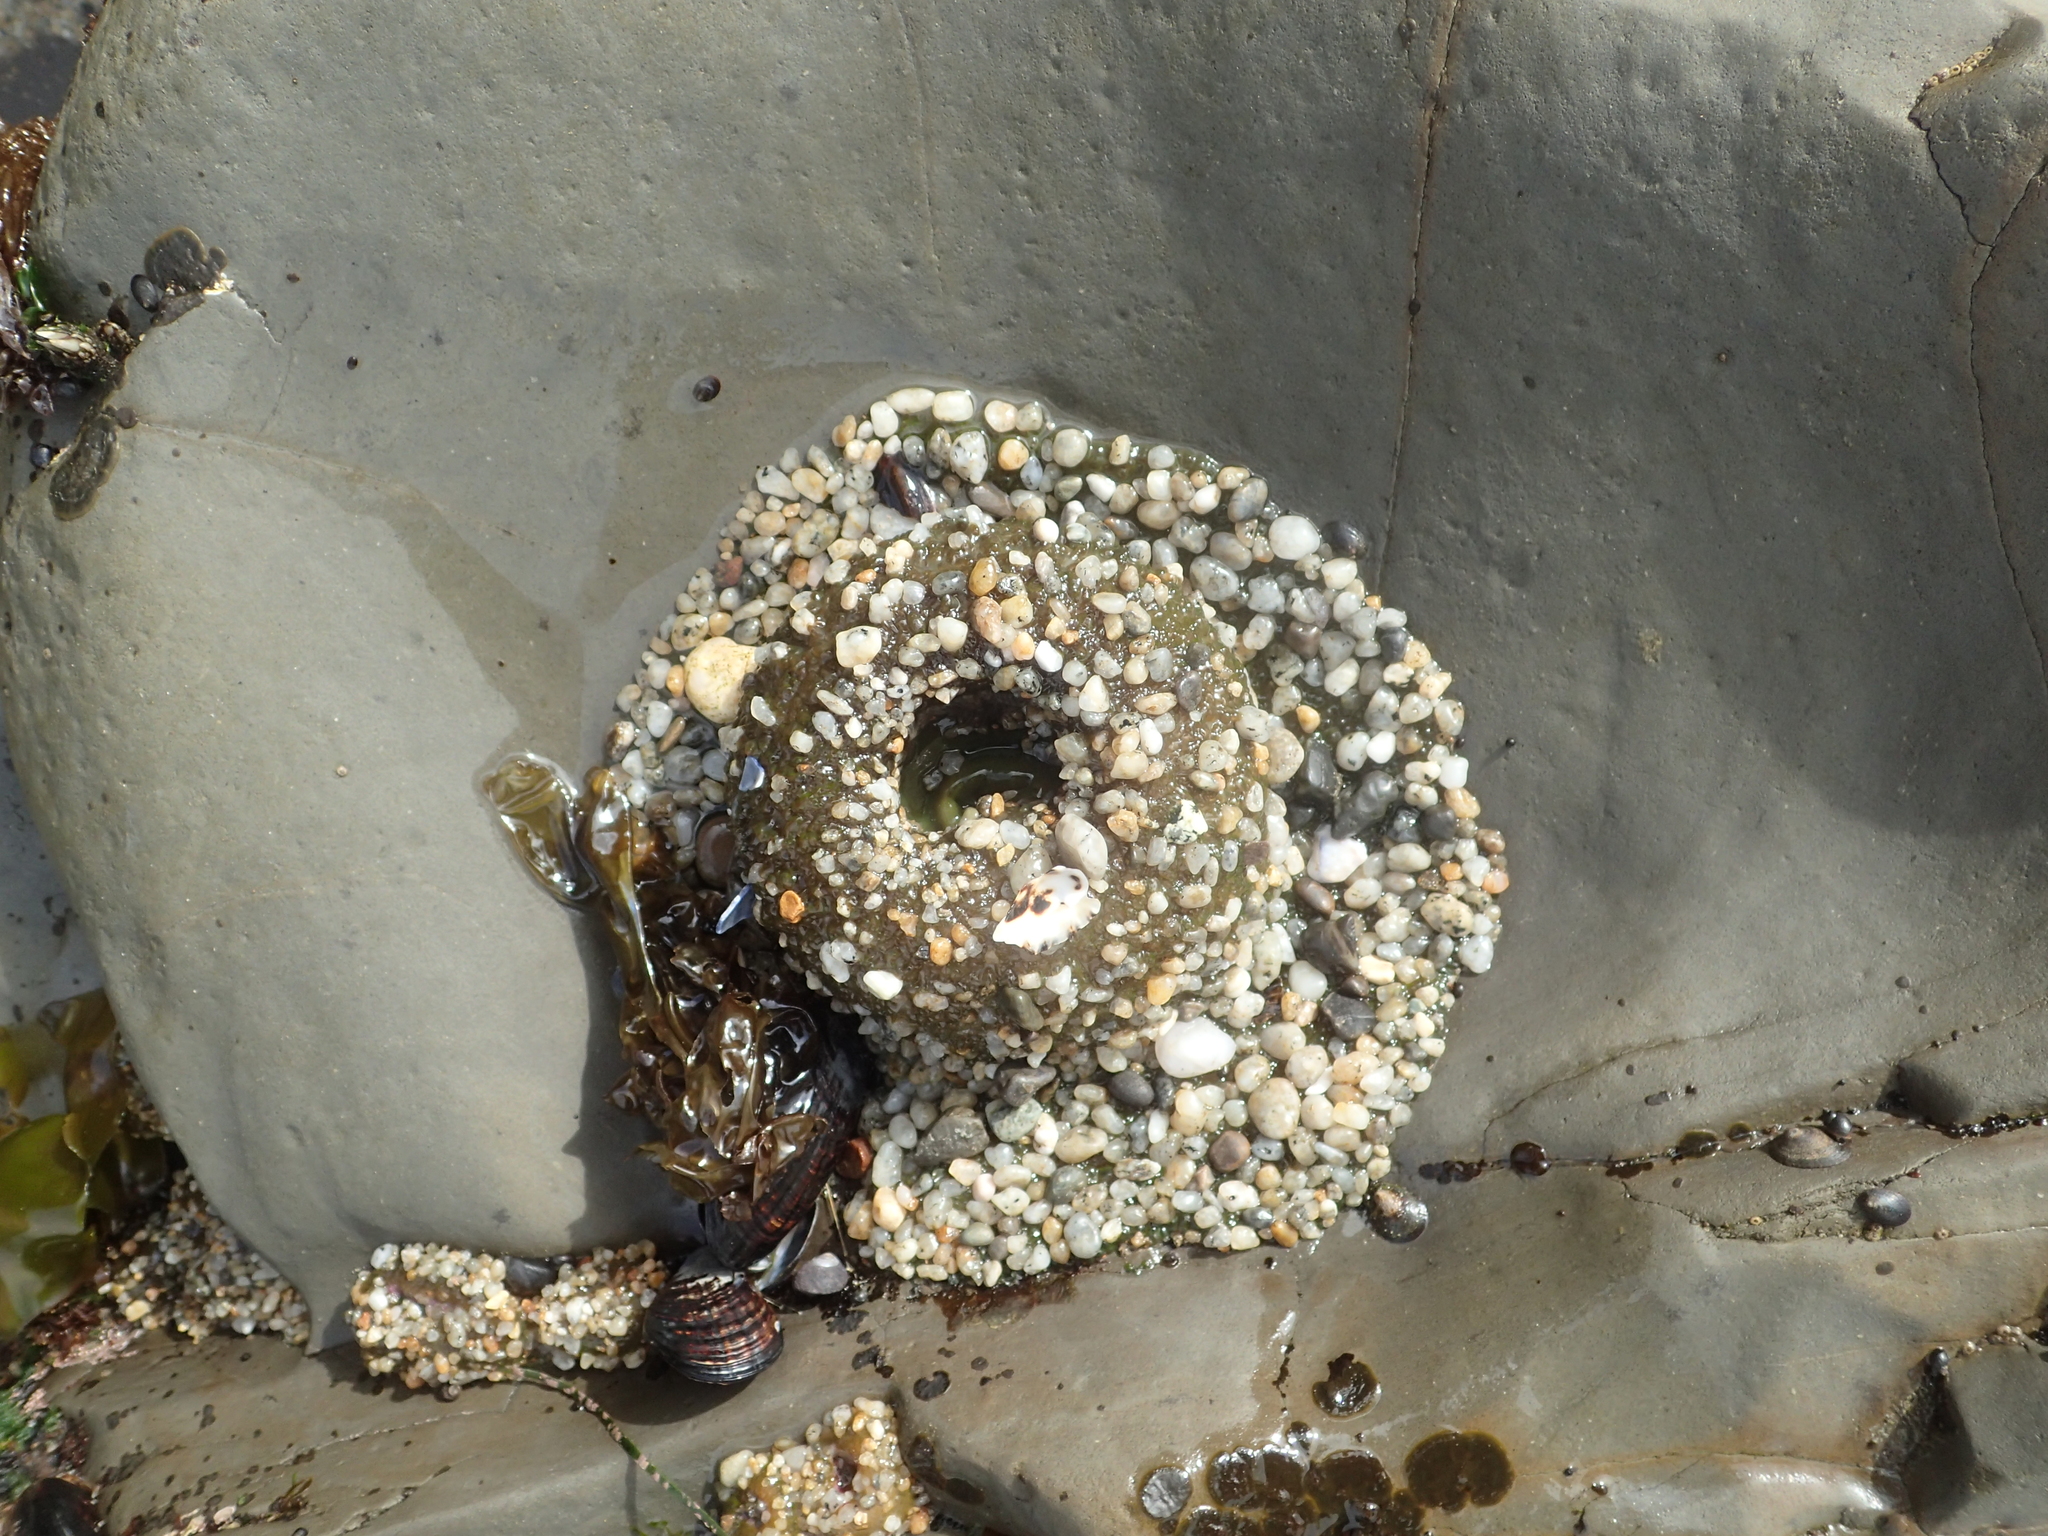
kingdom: Animalia
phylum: Cnidaria
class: Anthozoa
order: Actiniaria
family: Actiniidae
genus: Anthopleura
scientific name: Anthopleura xanthogrammica
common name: Giant green anemone
